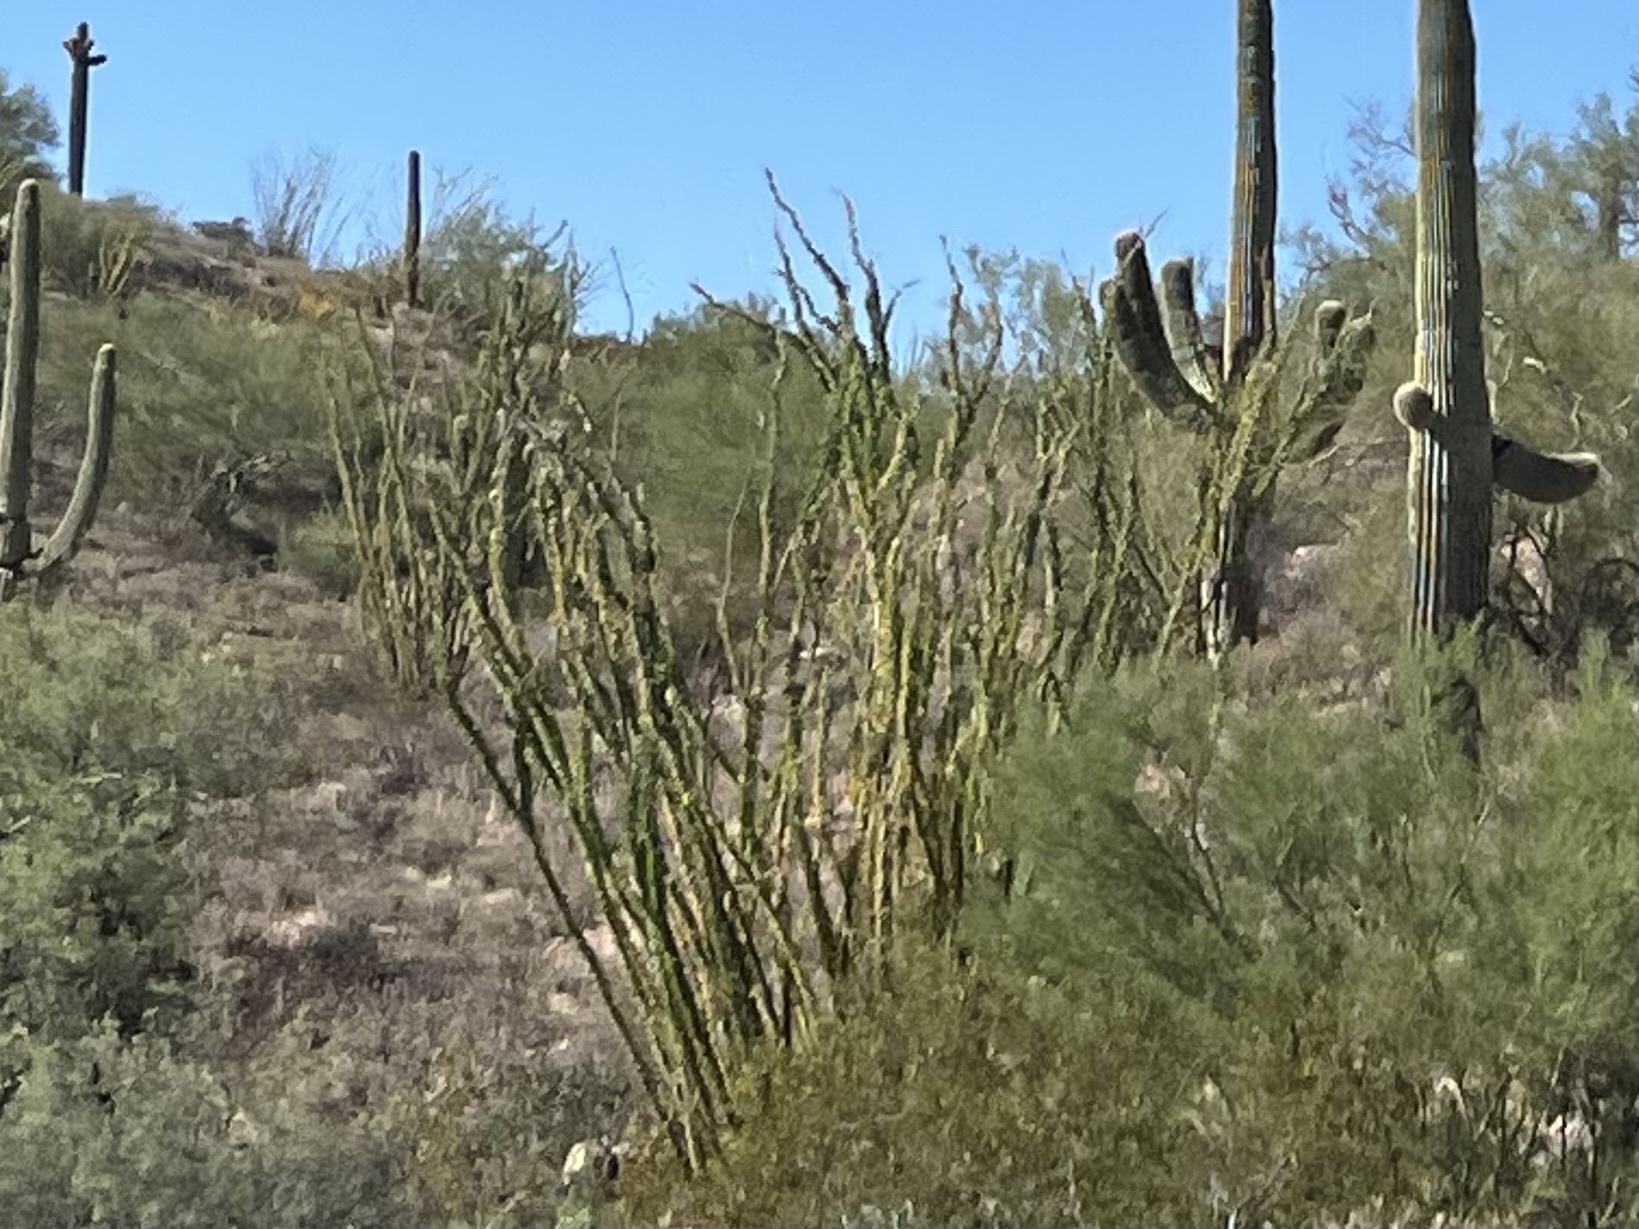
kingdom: Plantae
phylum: Tracheophyta
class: Magnoliopsida
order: Ericales
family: Fouquieriaceae
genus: Fouquieria
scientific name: Fouquieria splendens
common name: Vine-cactus
